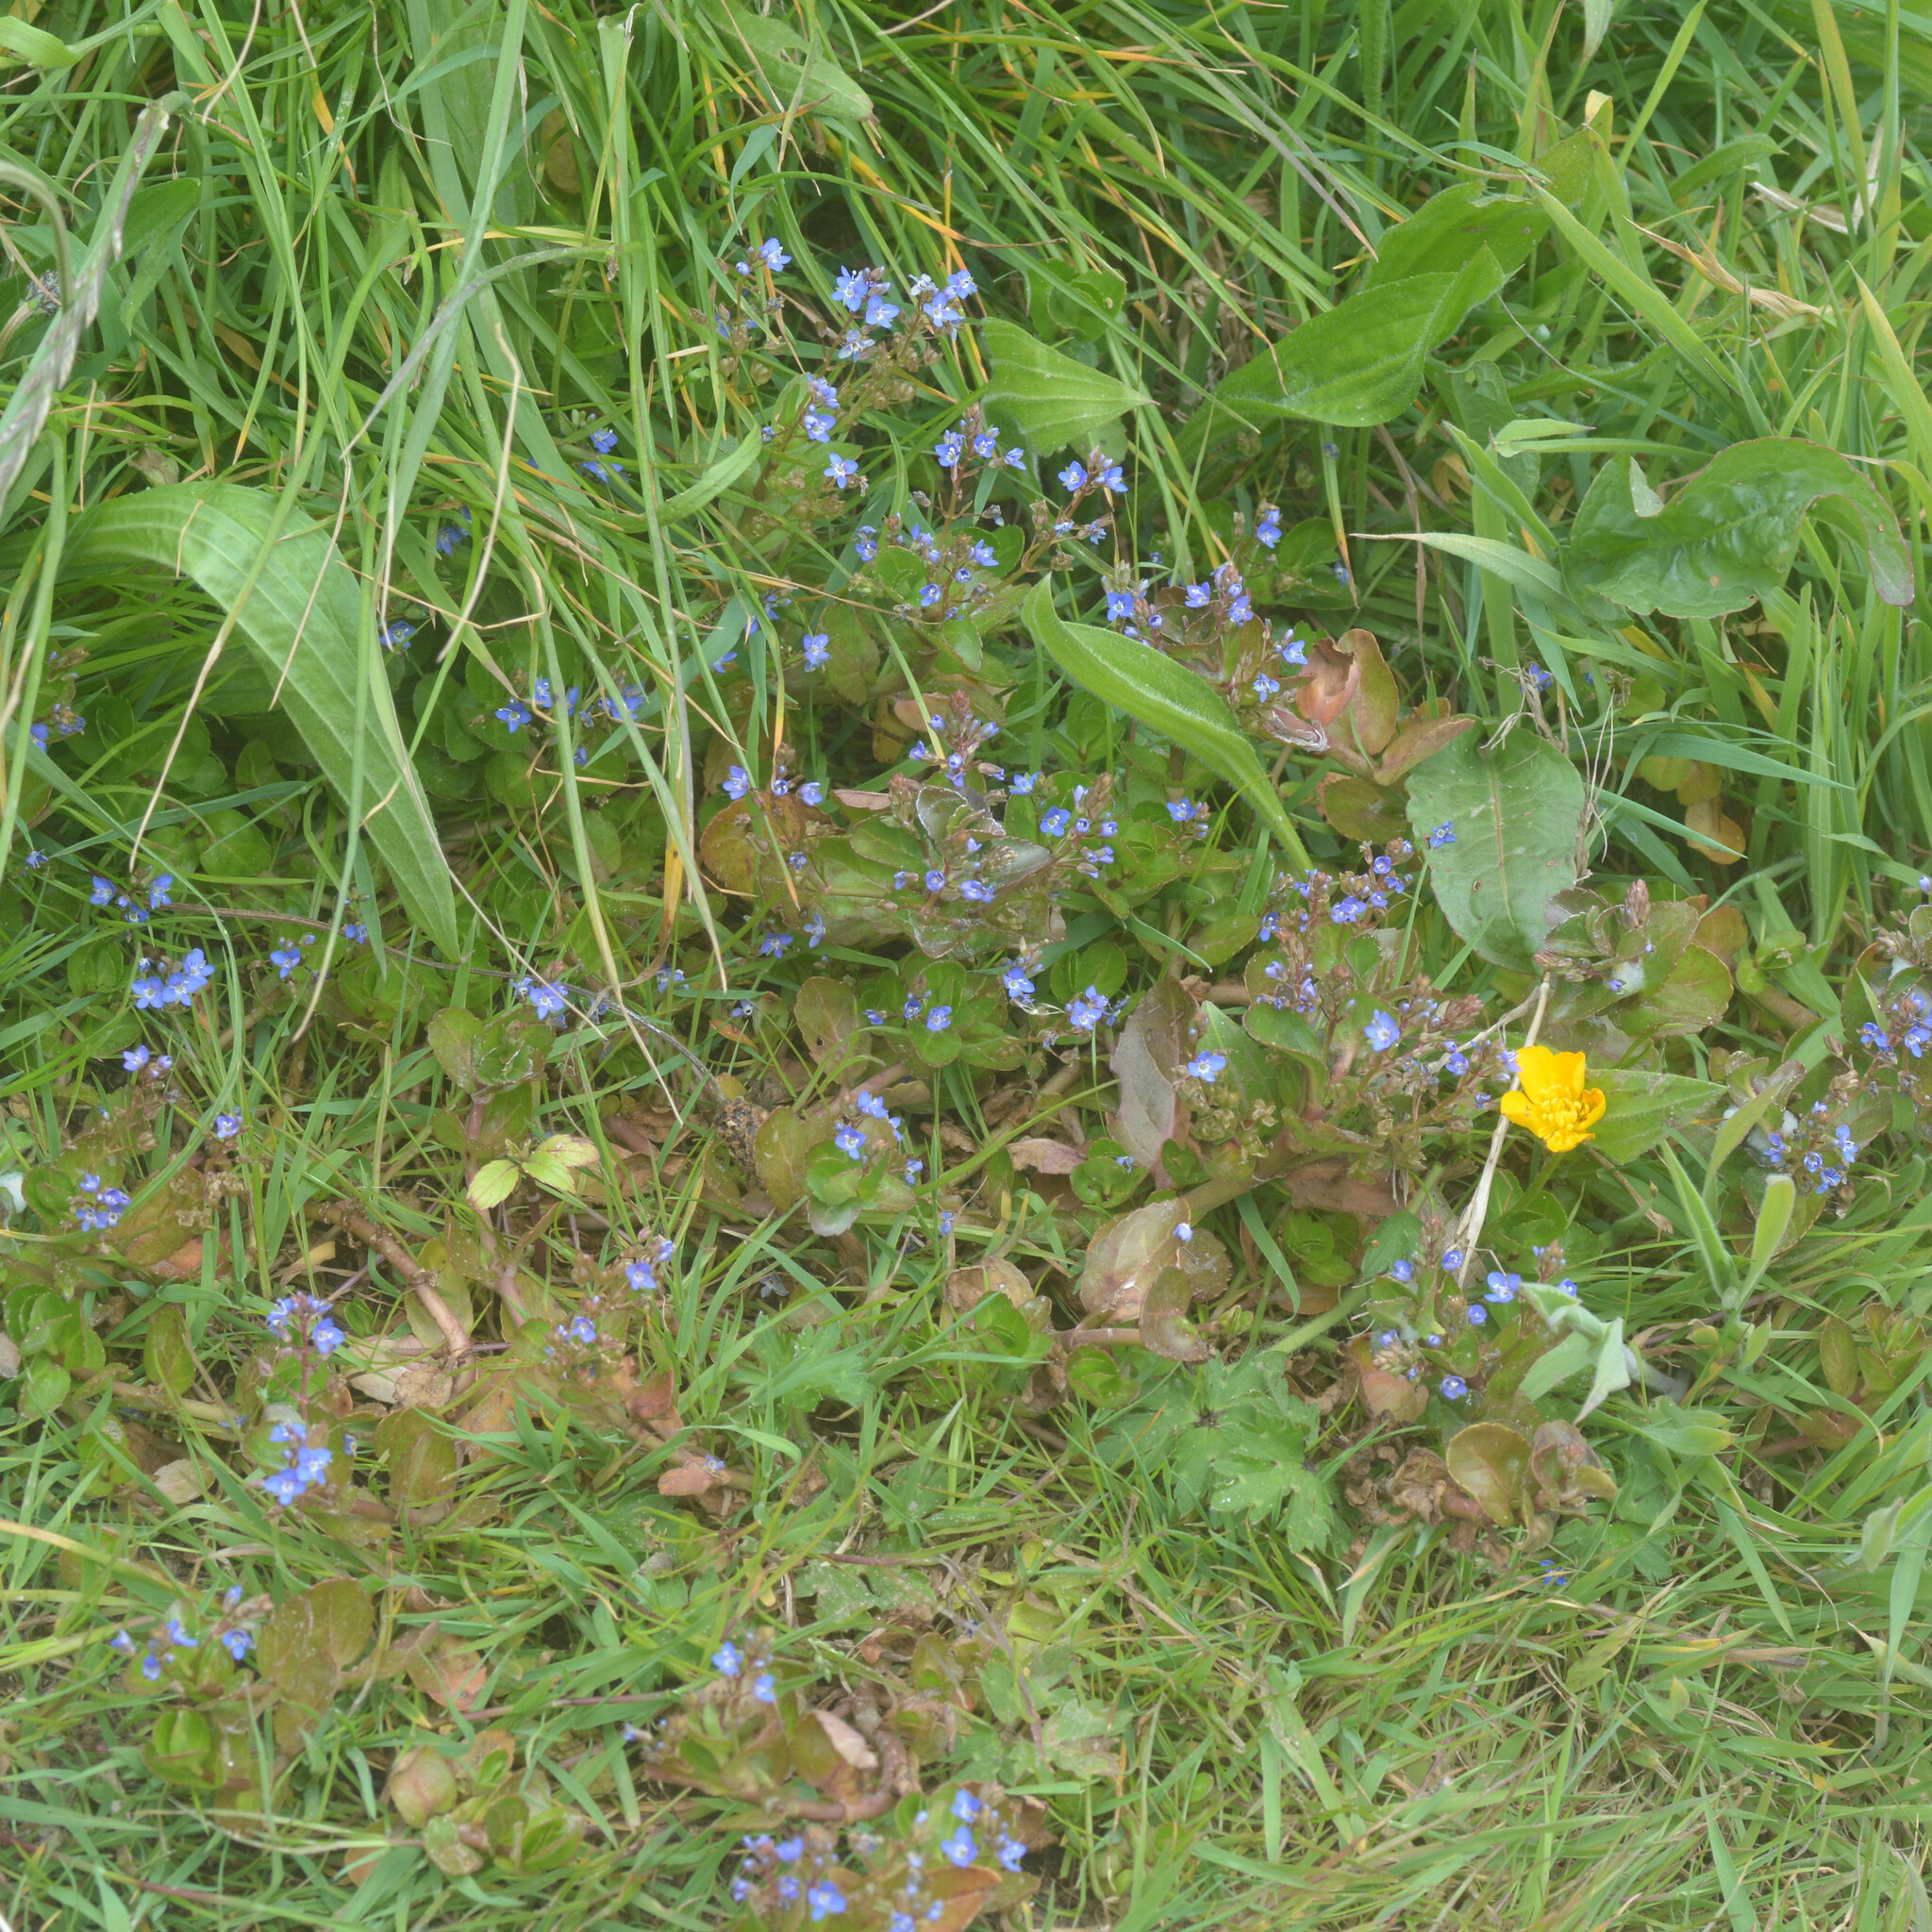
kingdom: Plantae
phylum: Tracheophyta
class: Magnoliopsida
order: Lamiales
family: Plantaginaceae
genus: Veronica
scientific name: Veronica beccabunga
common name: Brooklime
